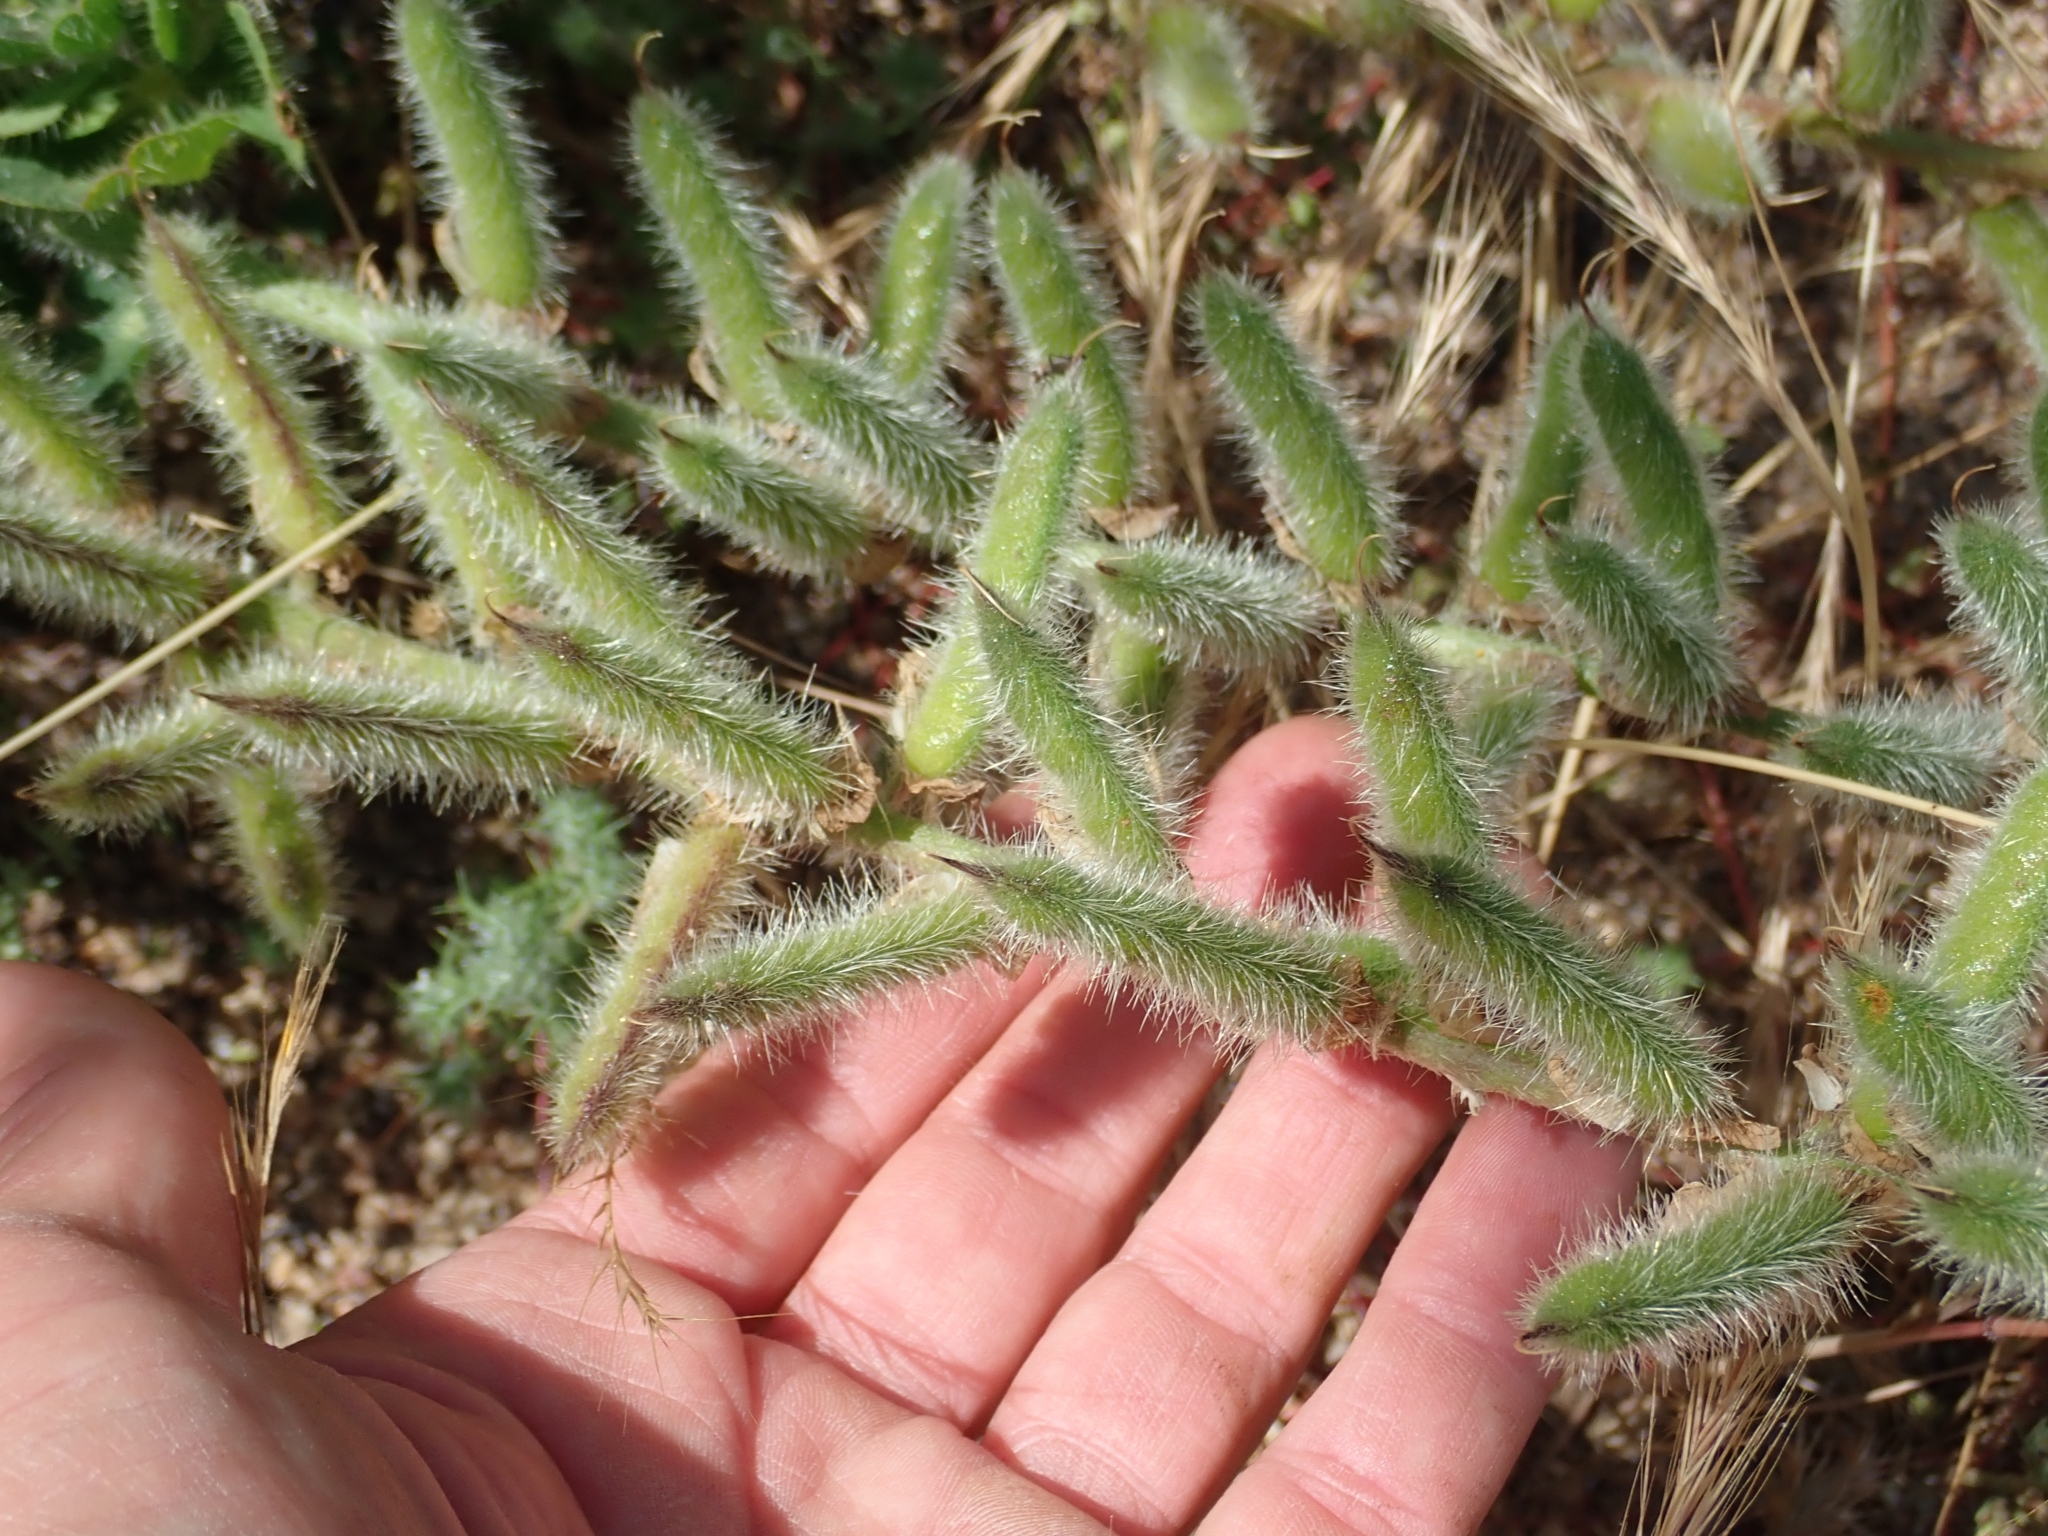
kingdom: Plantae
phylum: Tracheophyta
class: Magnoliopsida
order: Fabales
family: Fabaceae
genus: Lupinus
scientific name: Lupinus hirsutissimus
